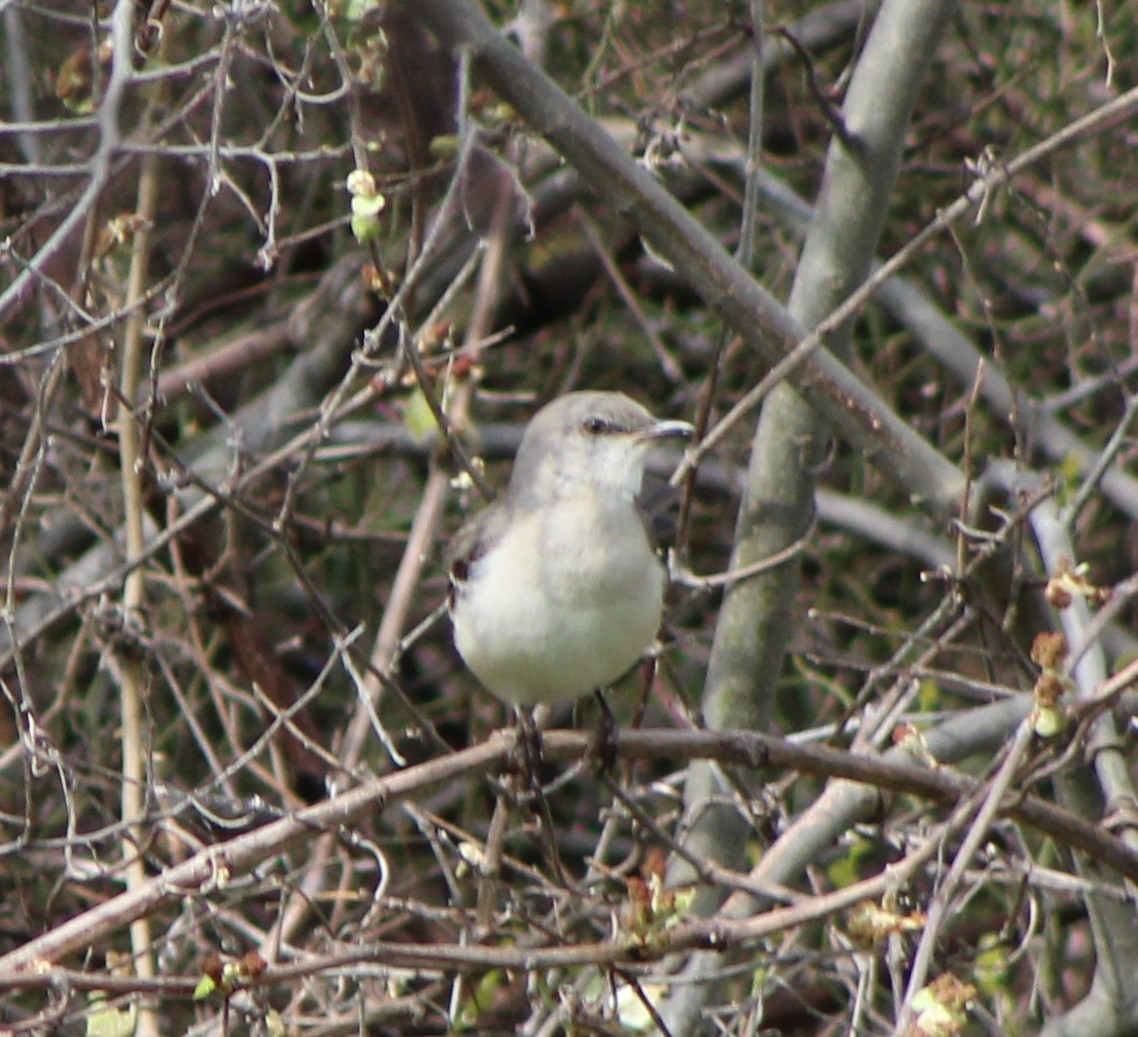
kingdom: Animalia
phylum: Chordata
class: Aves
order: Passeriformes
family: Mimidae
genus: Mimus
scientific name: Mimus polyglottos
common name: Northern mockingbird
